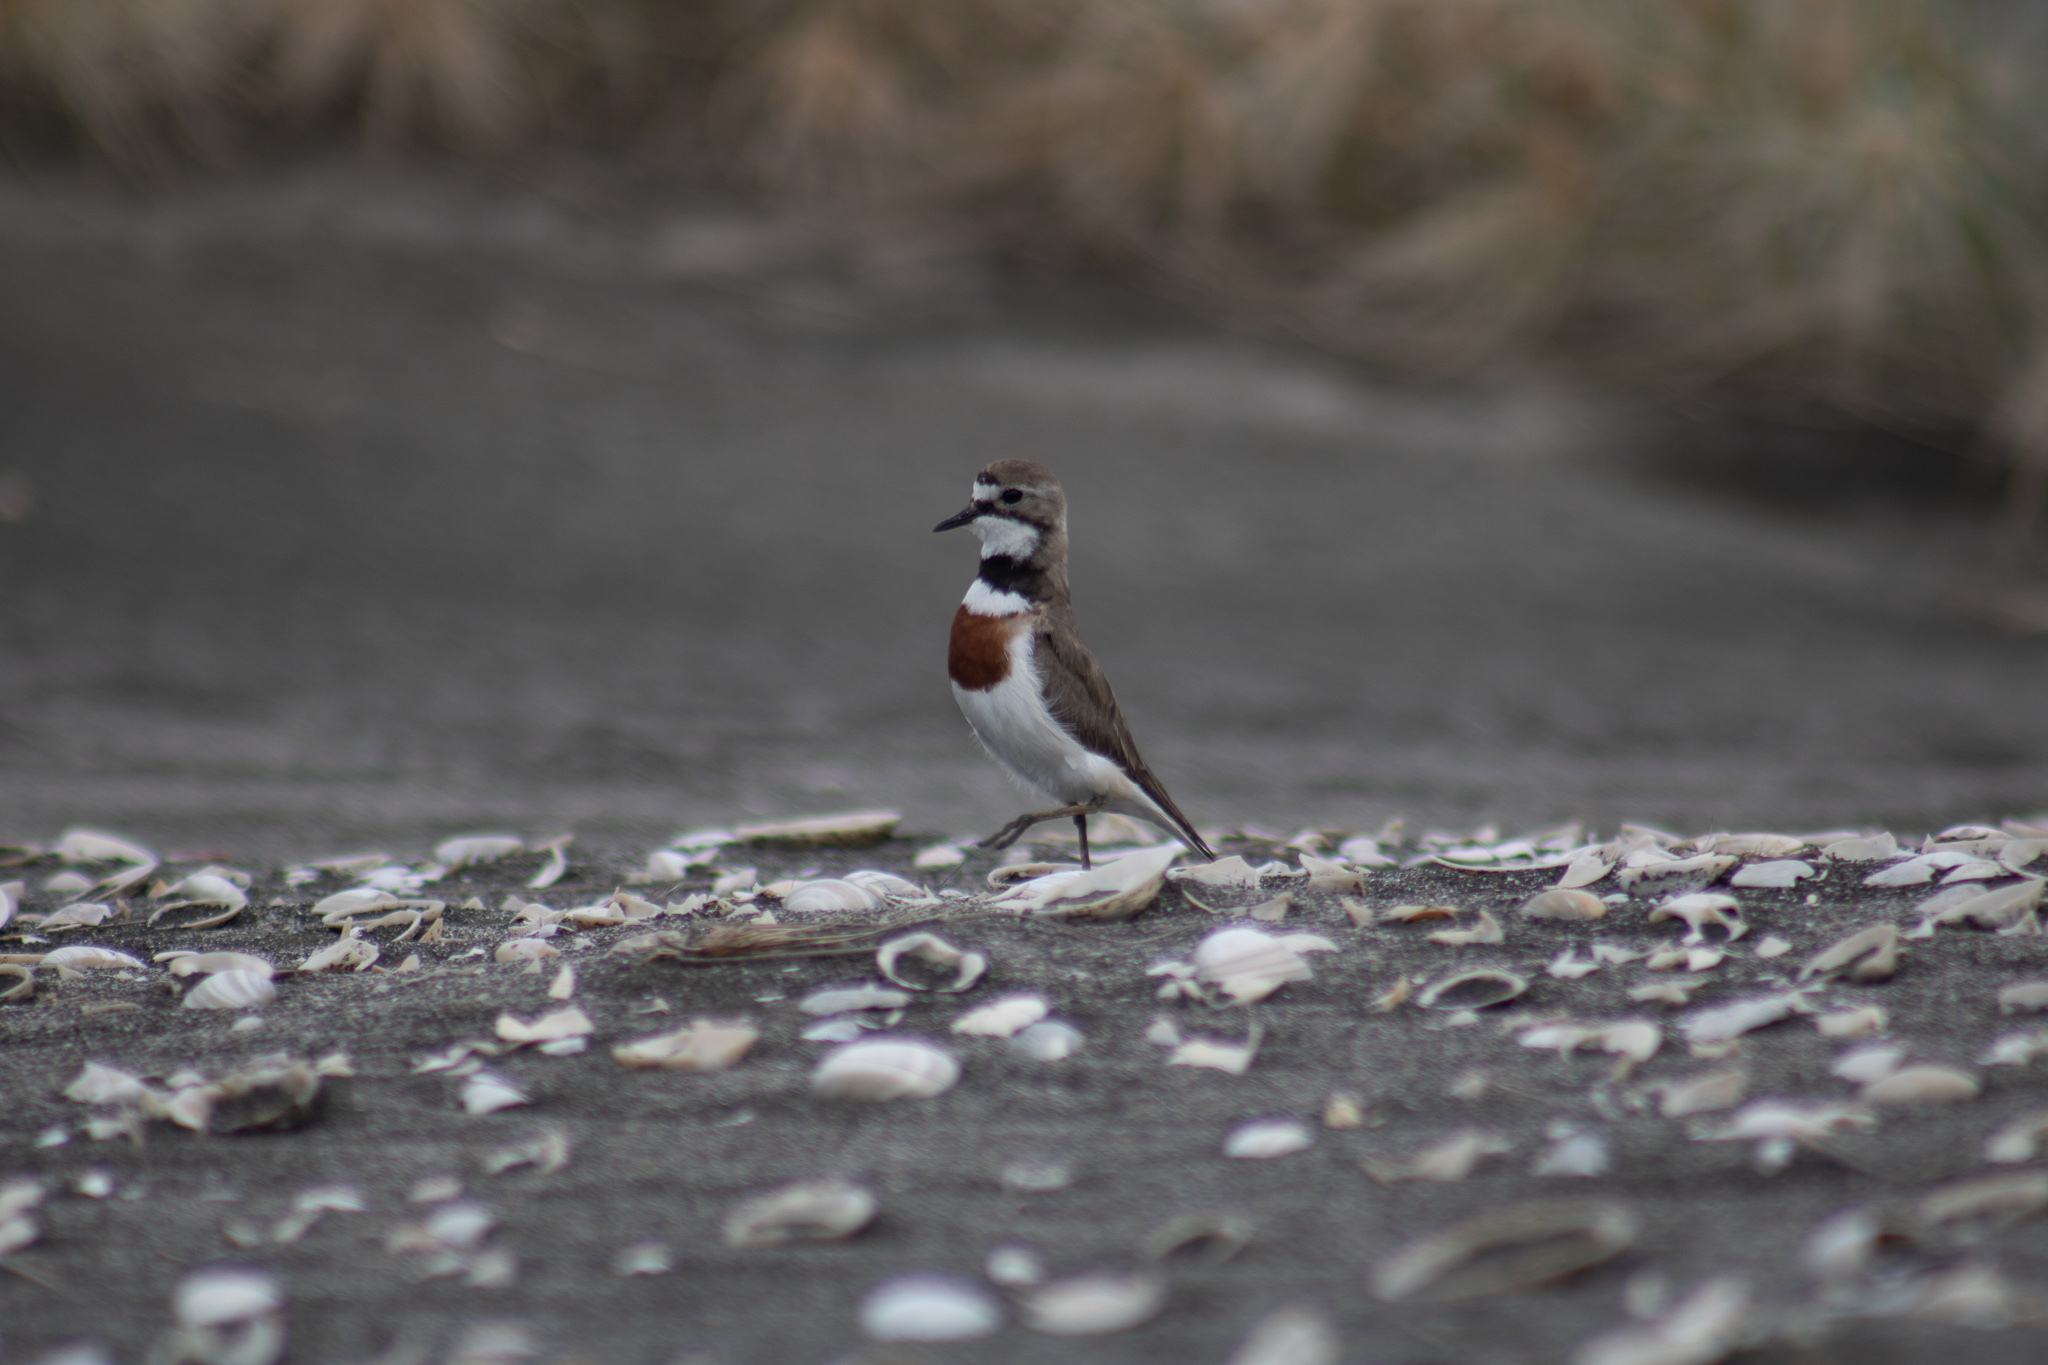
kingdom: Animalia
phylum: Chordata
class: Aves
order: Charadriiformes
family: Charadriidae
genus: Anarhynchus
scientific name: Anarhynchus
